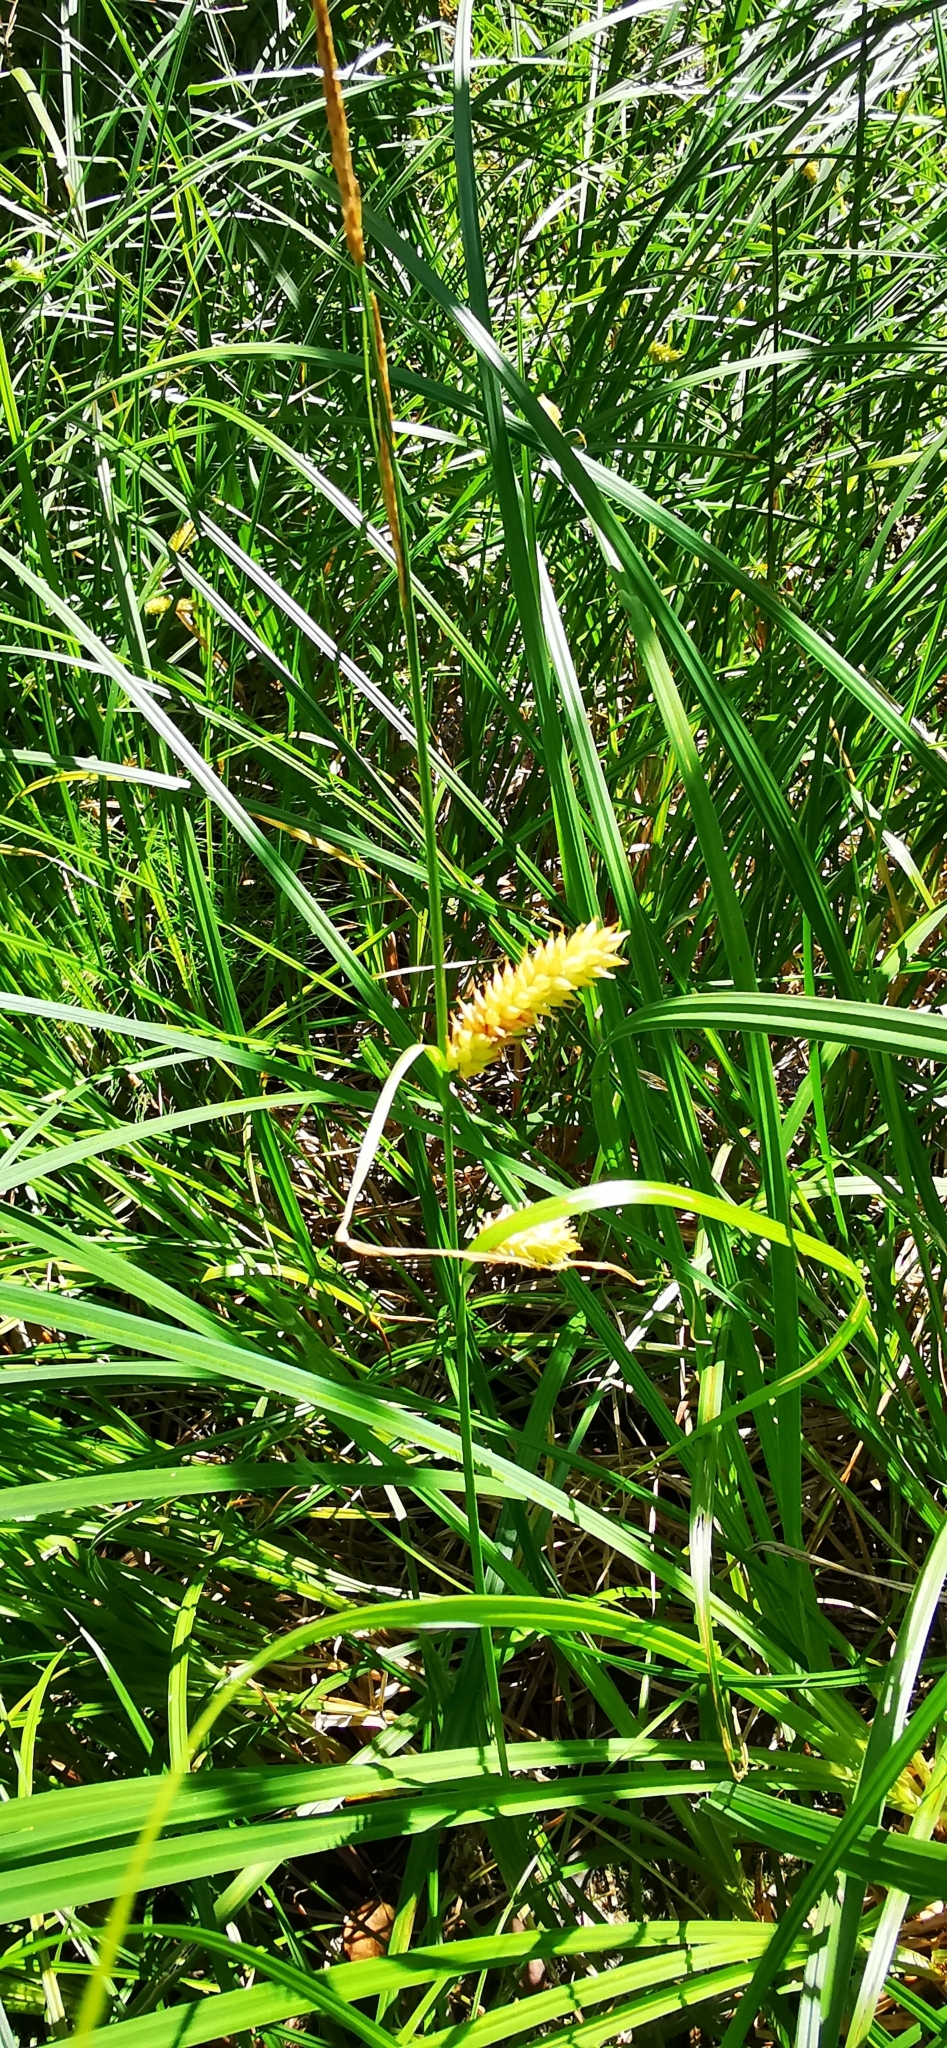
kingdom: Plantae
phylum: Tracheophyta
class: Liliopsida
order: Poales
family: Cyperaceae
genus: Carex
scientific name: Carex vesicaria
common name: Bladder-sedge
